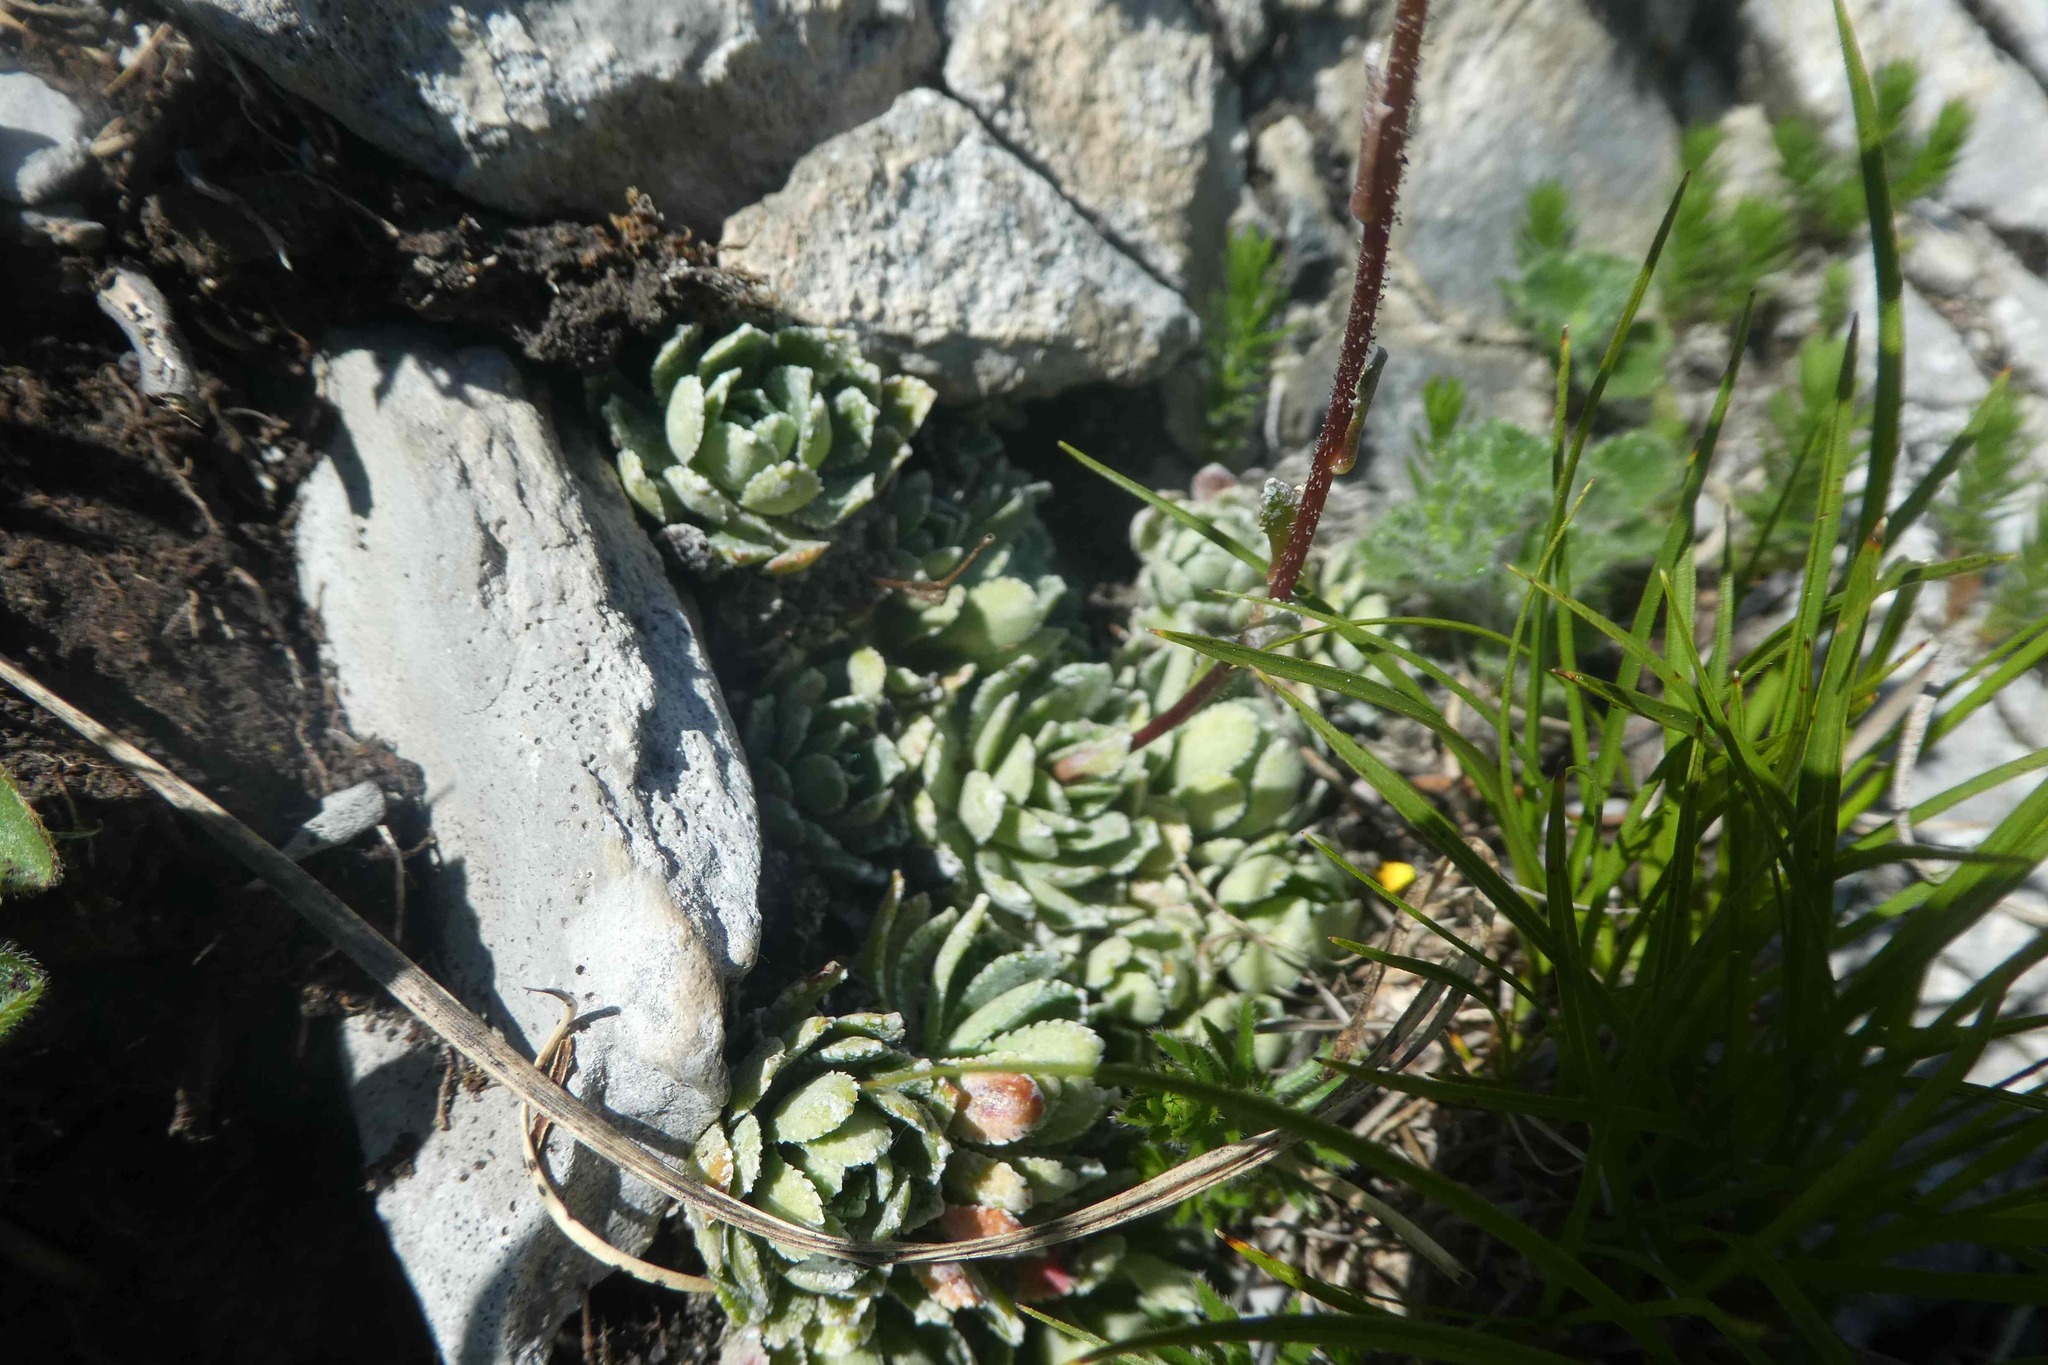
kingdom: Plantae
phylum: Tracheophyta
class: Magnoliopsida
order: Saxifragales
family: Saxifragaceae
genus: Saxifraga
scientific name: Saxifraga paniculata
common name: Livelong saxifrage
